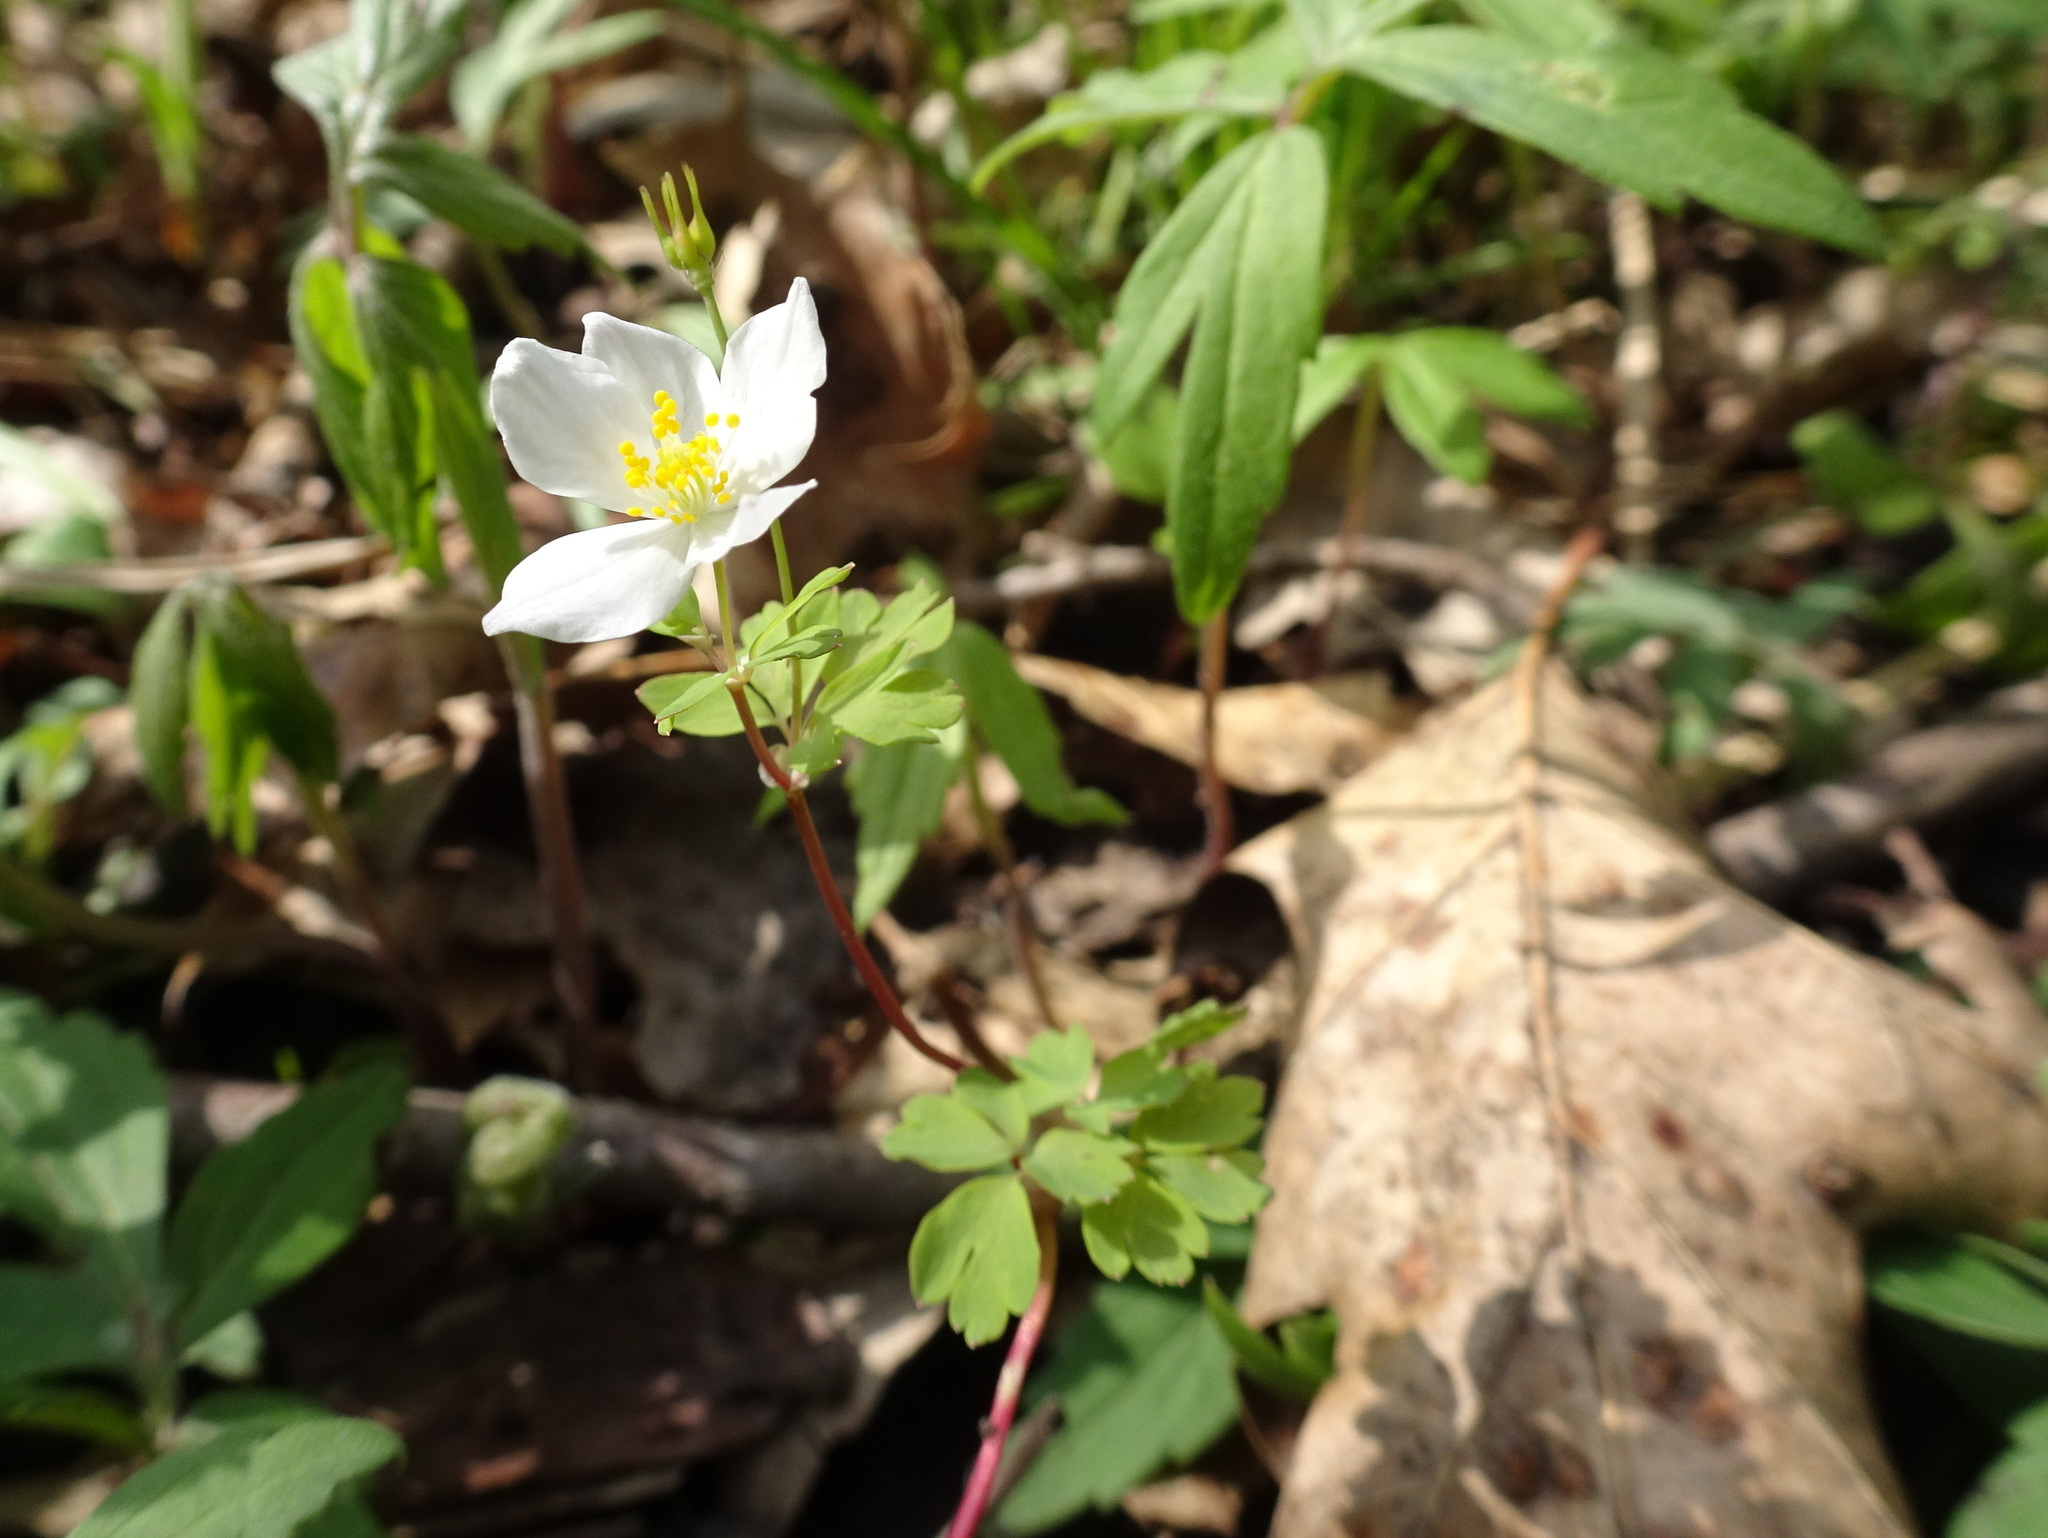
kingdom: Plantae
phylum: Tracheophyta
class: Magnoliopsida
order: Ranunculales
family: Ranunculaceae
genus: Enemion
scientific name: Enemion biternatum
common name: Eastern false rue-anemone
